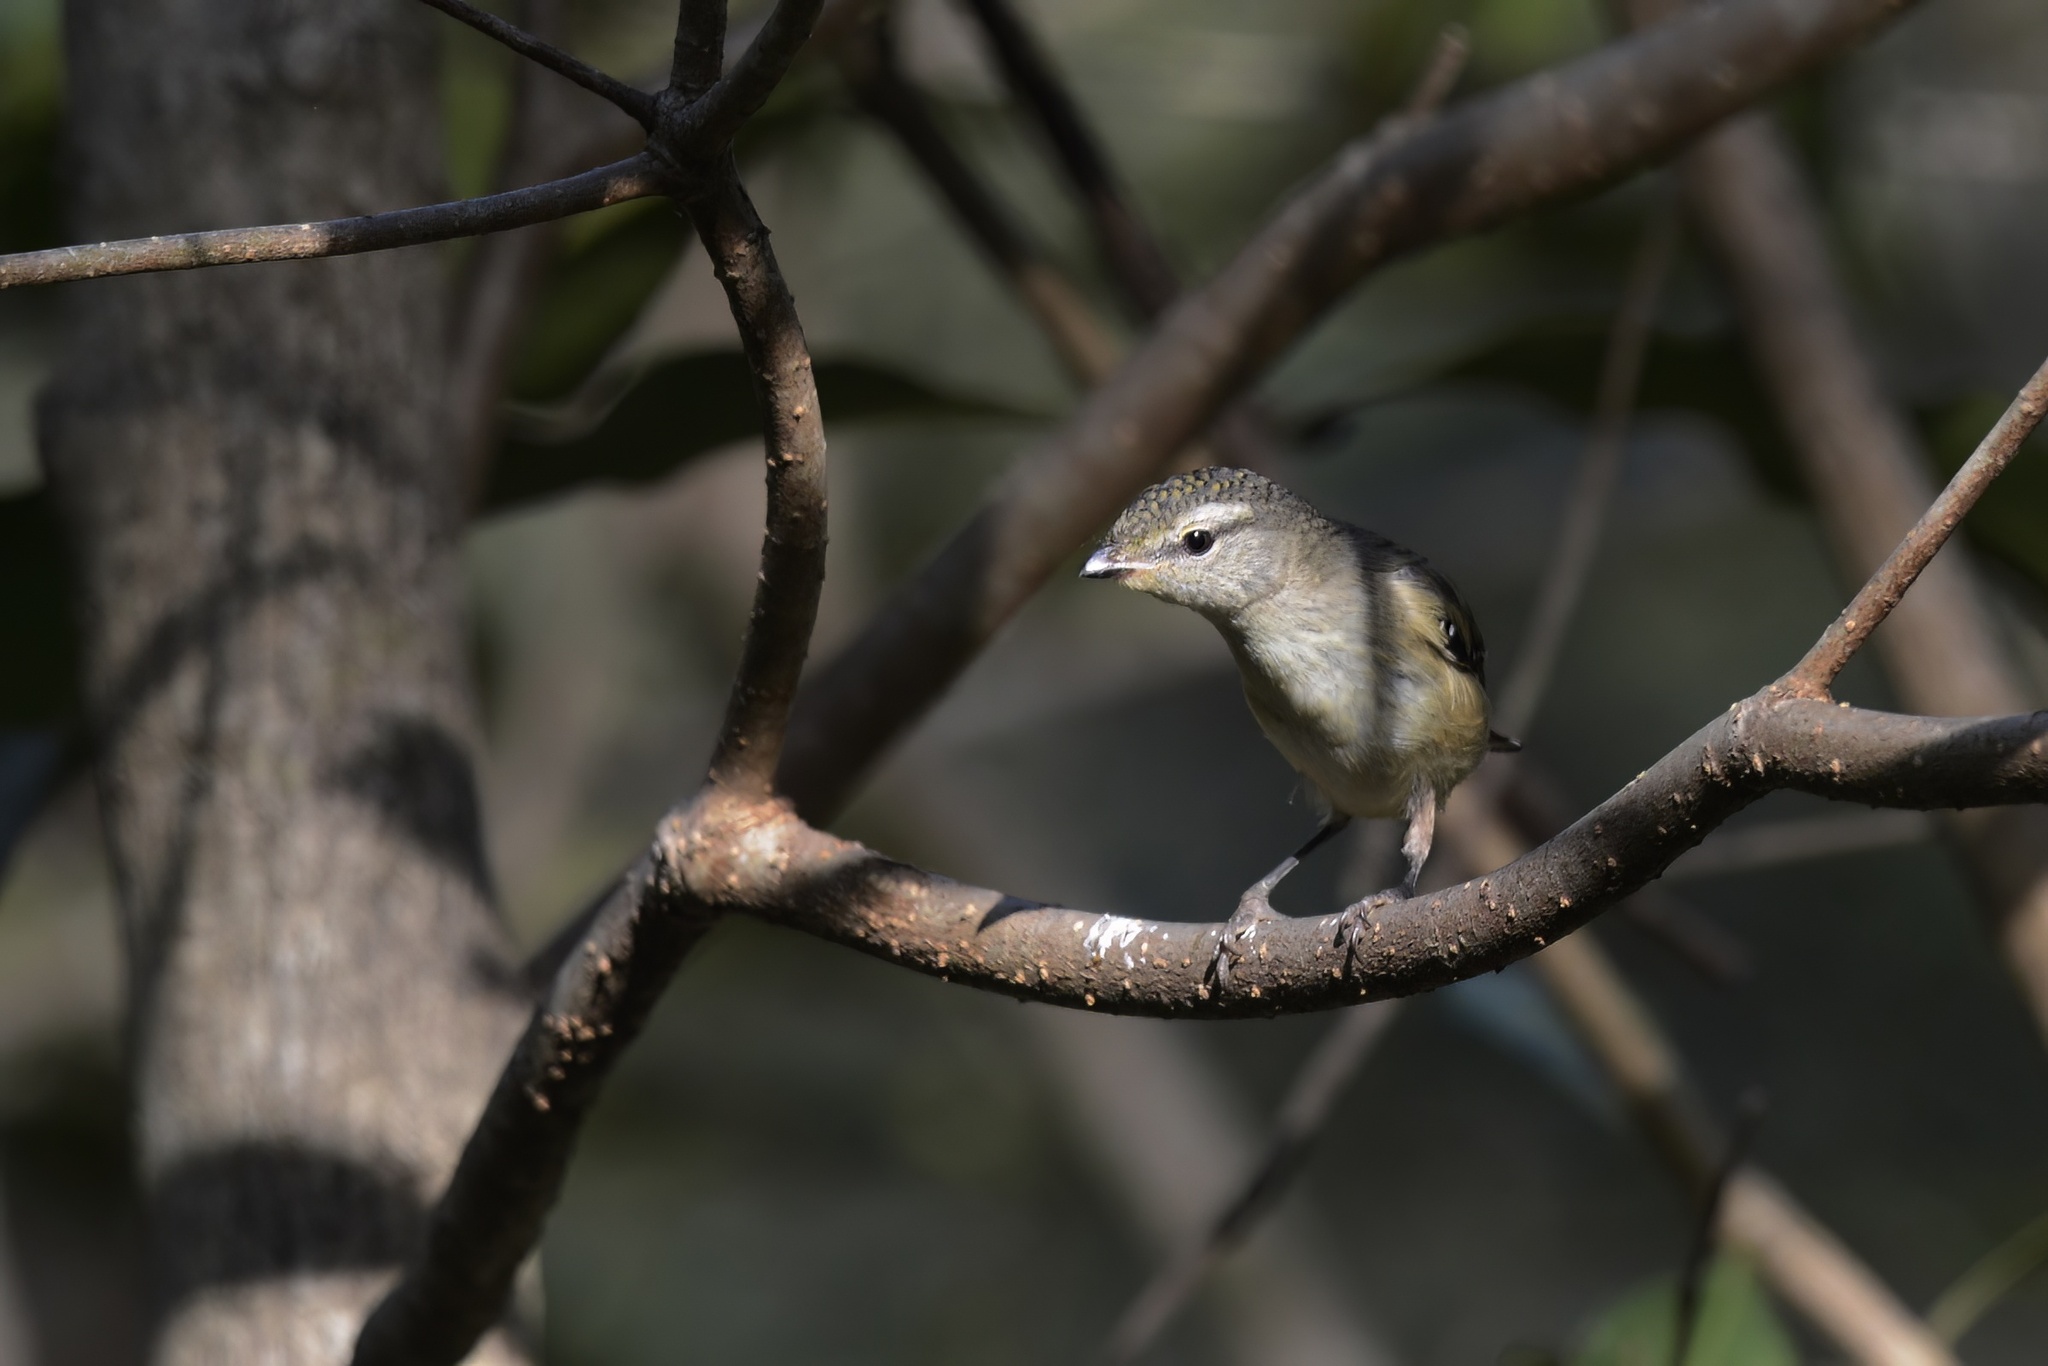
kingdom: Animalia
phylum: Chordata
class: Aves
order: Passeriformes
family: Pardalotidae
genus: Pardalotus
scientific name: Pardalotus punctatus
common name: Spotted pardalote
